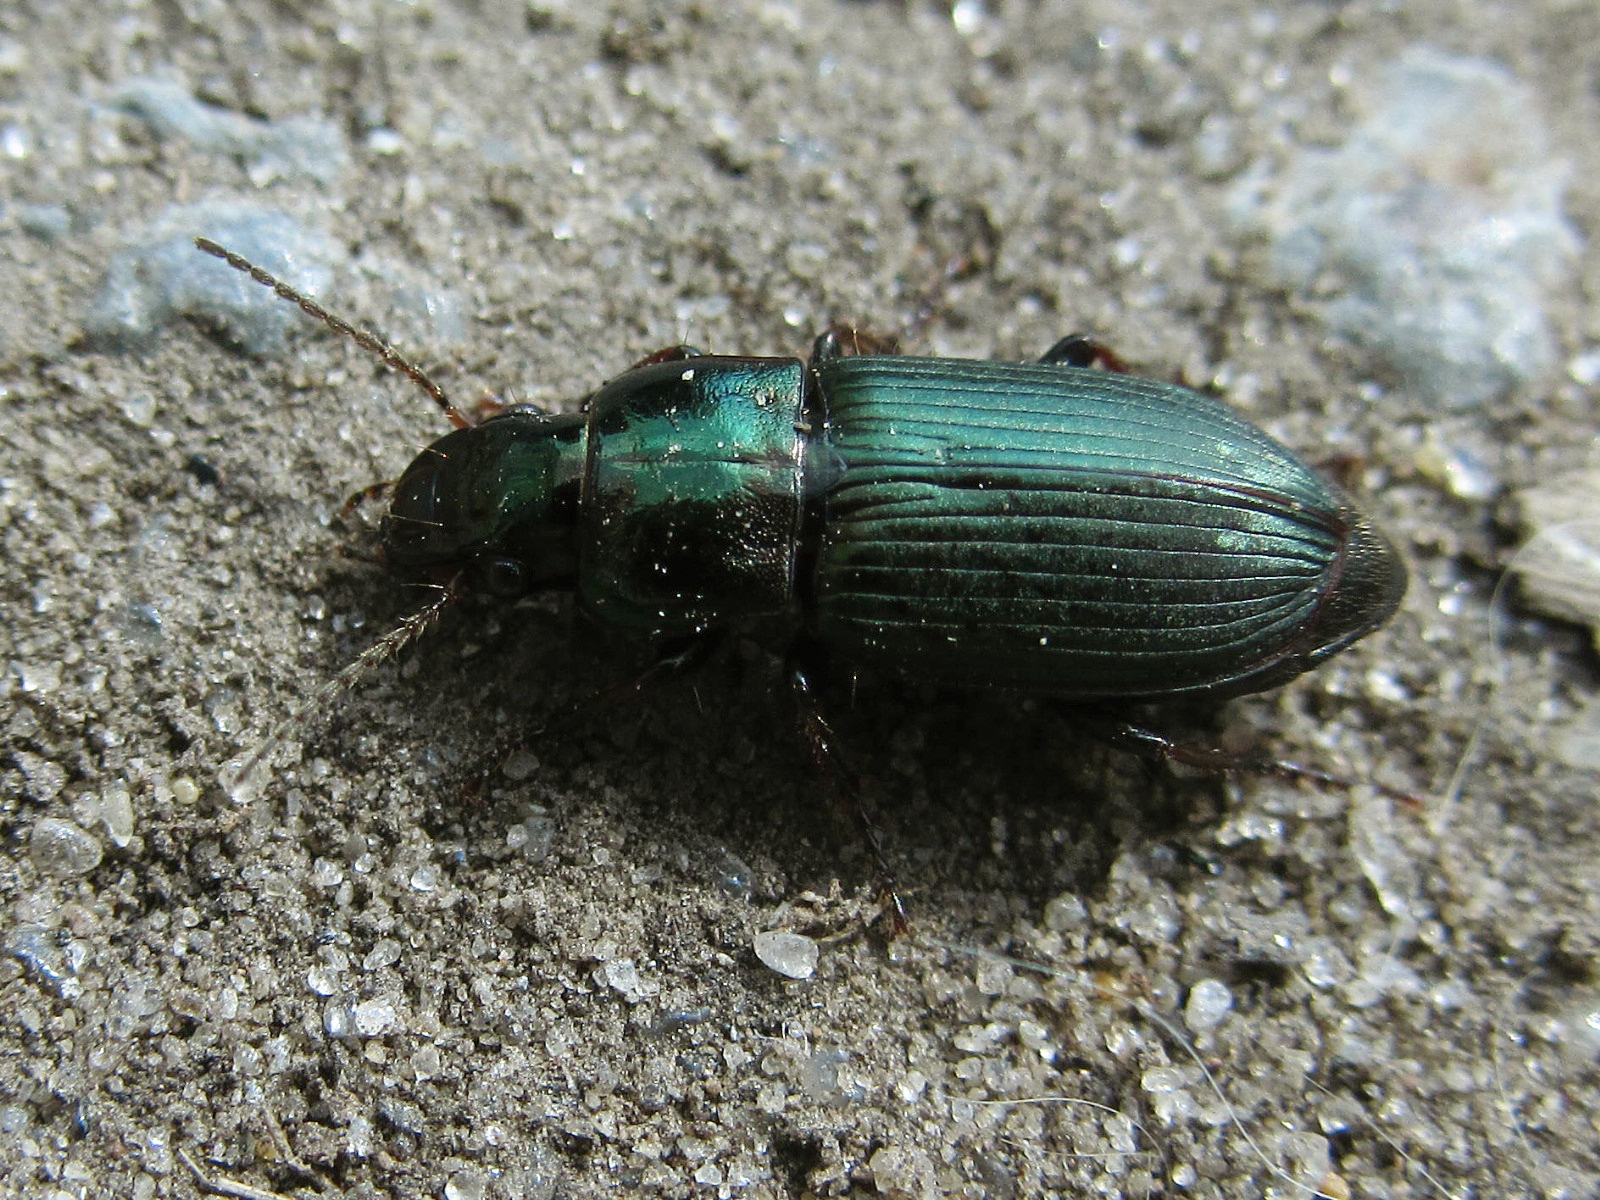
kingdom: Animalia
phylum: Arthropoda
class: Insecta
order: Coleoptera
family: Carabidae
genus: Harpalus
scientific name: Harpalus distinguendus
